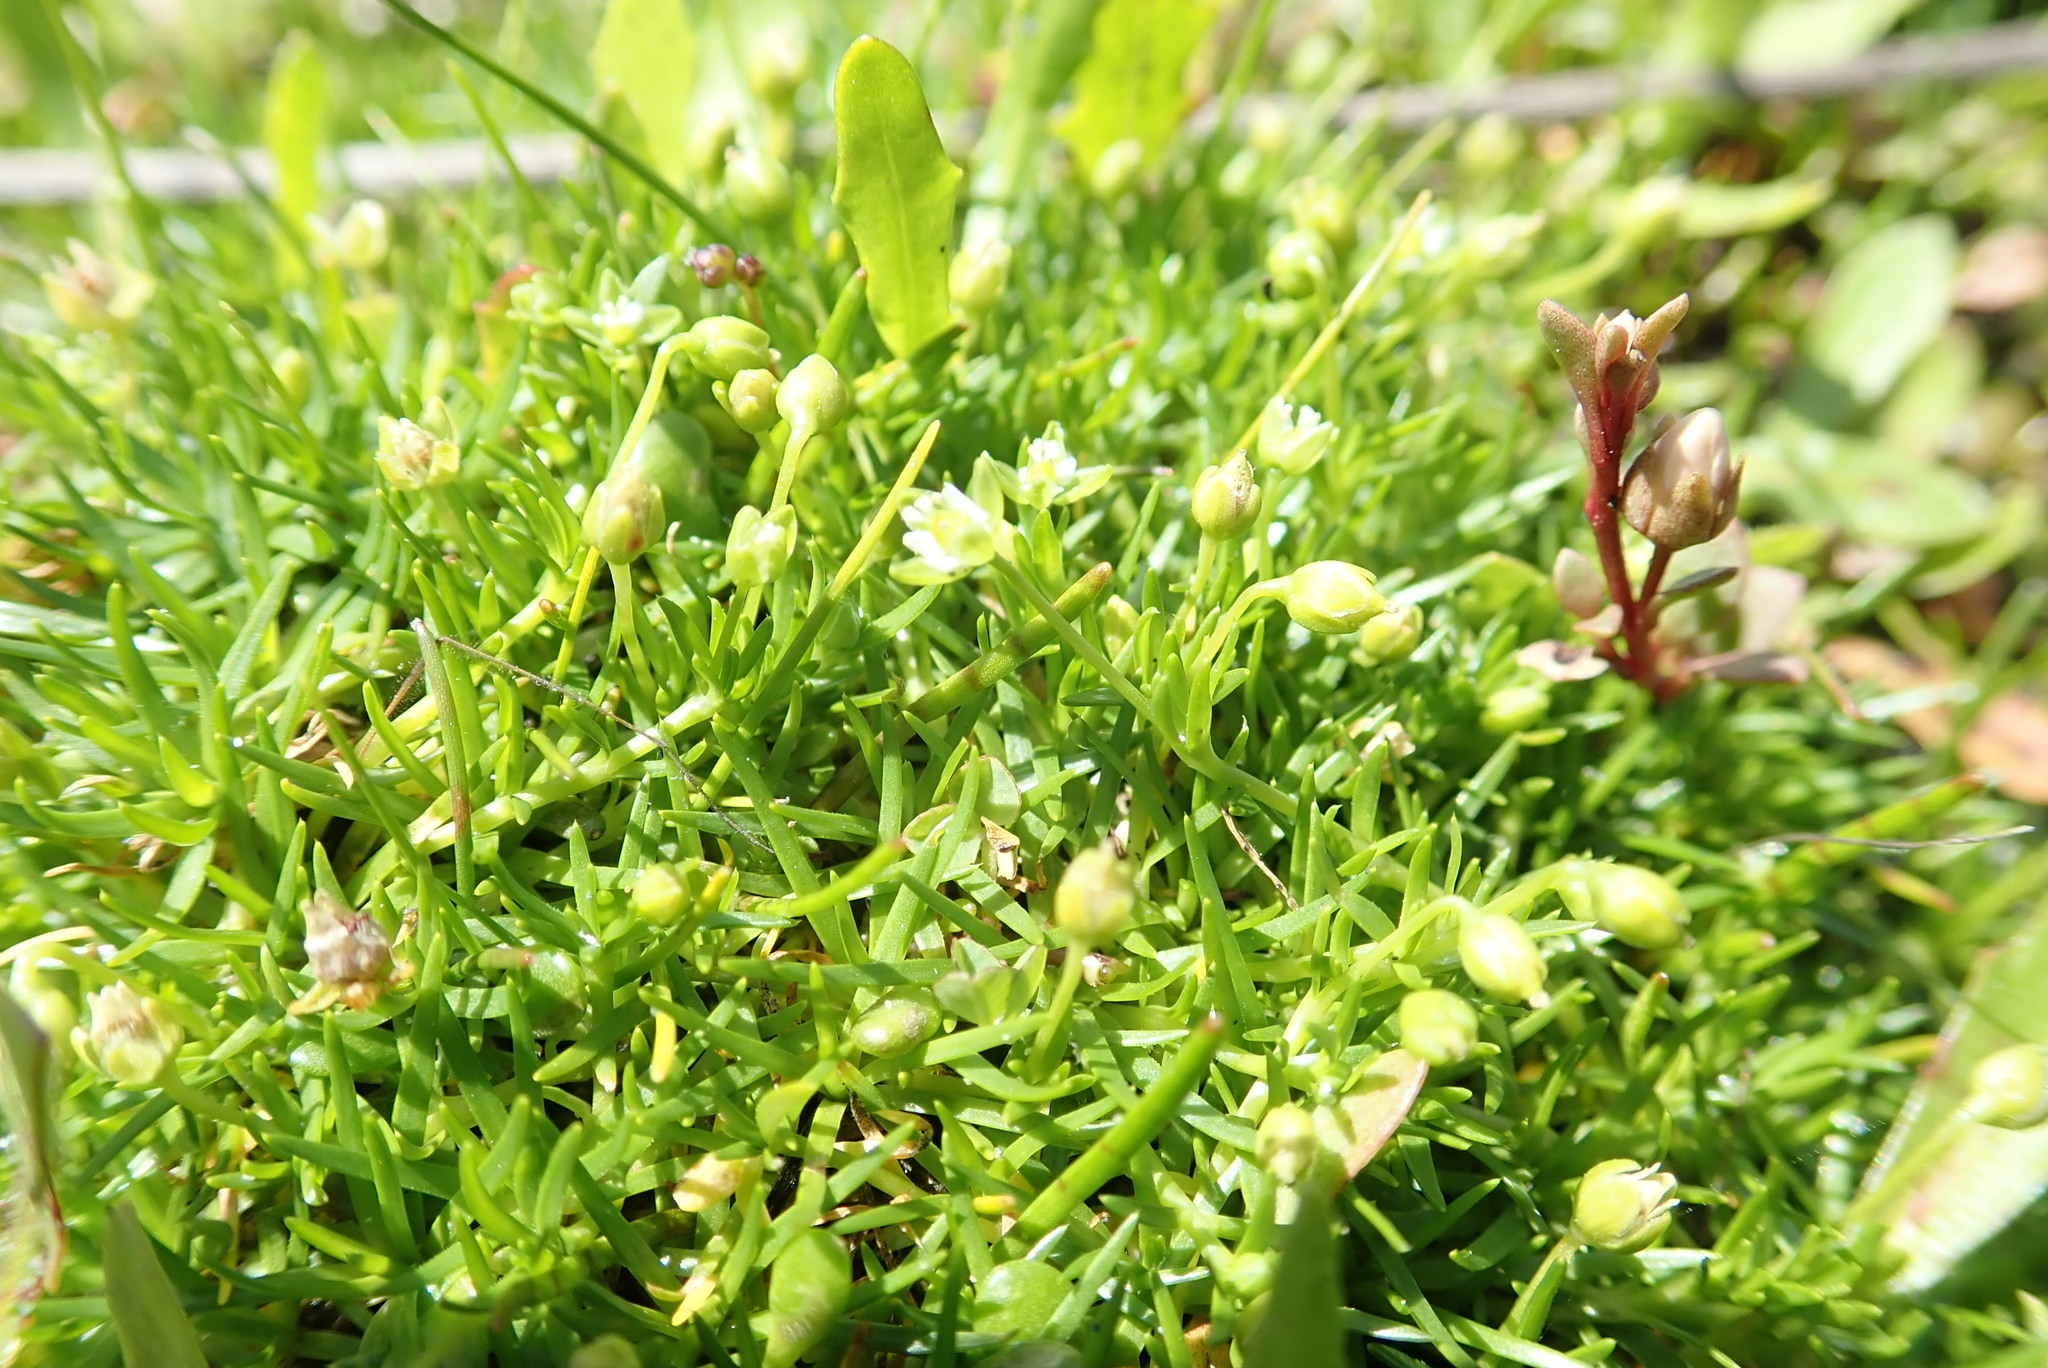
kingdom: Plantae
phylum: Tracheophyta
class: Magnoliopsida
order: Caryophyllales
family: Caryophyllaceae
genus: Sagina
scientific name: Sagina procumbens
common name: Procumbent pearlwort
